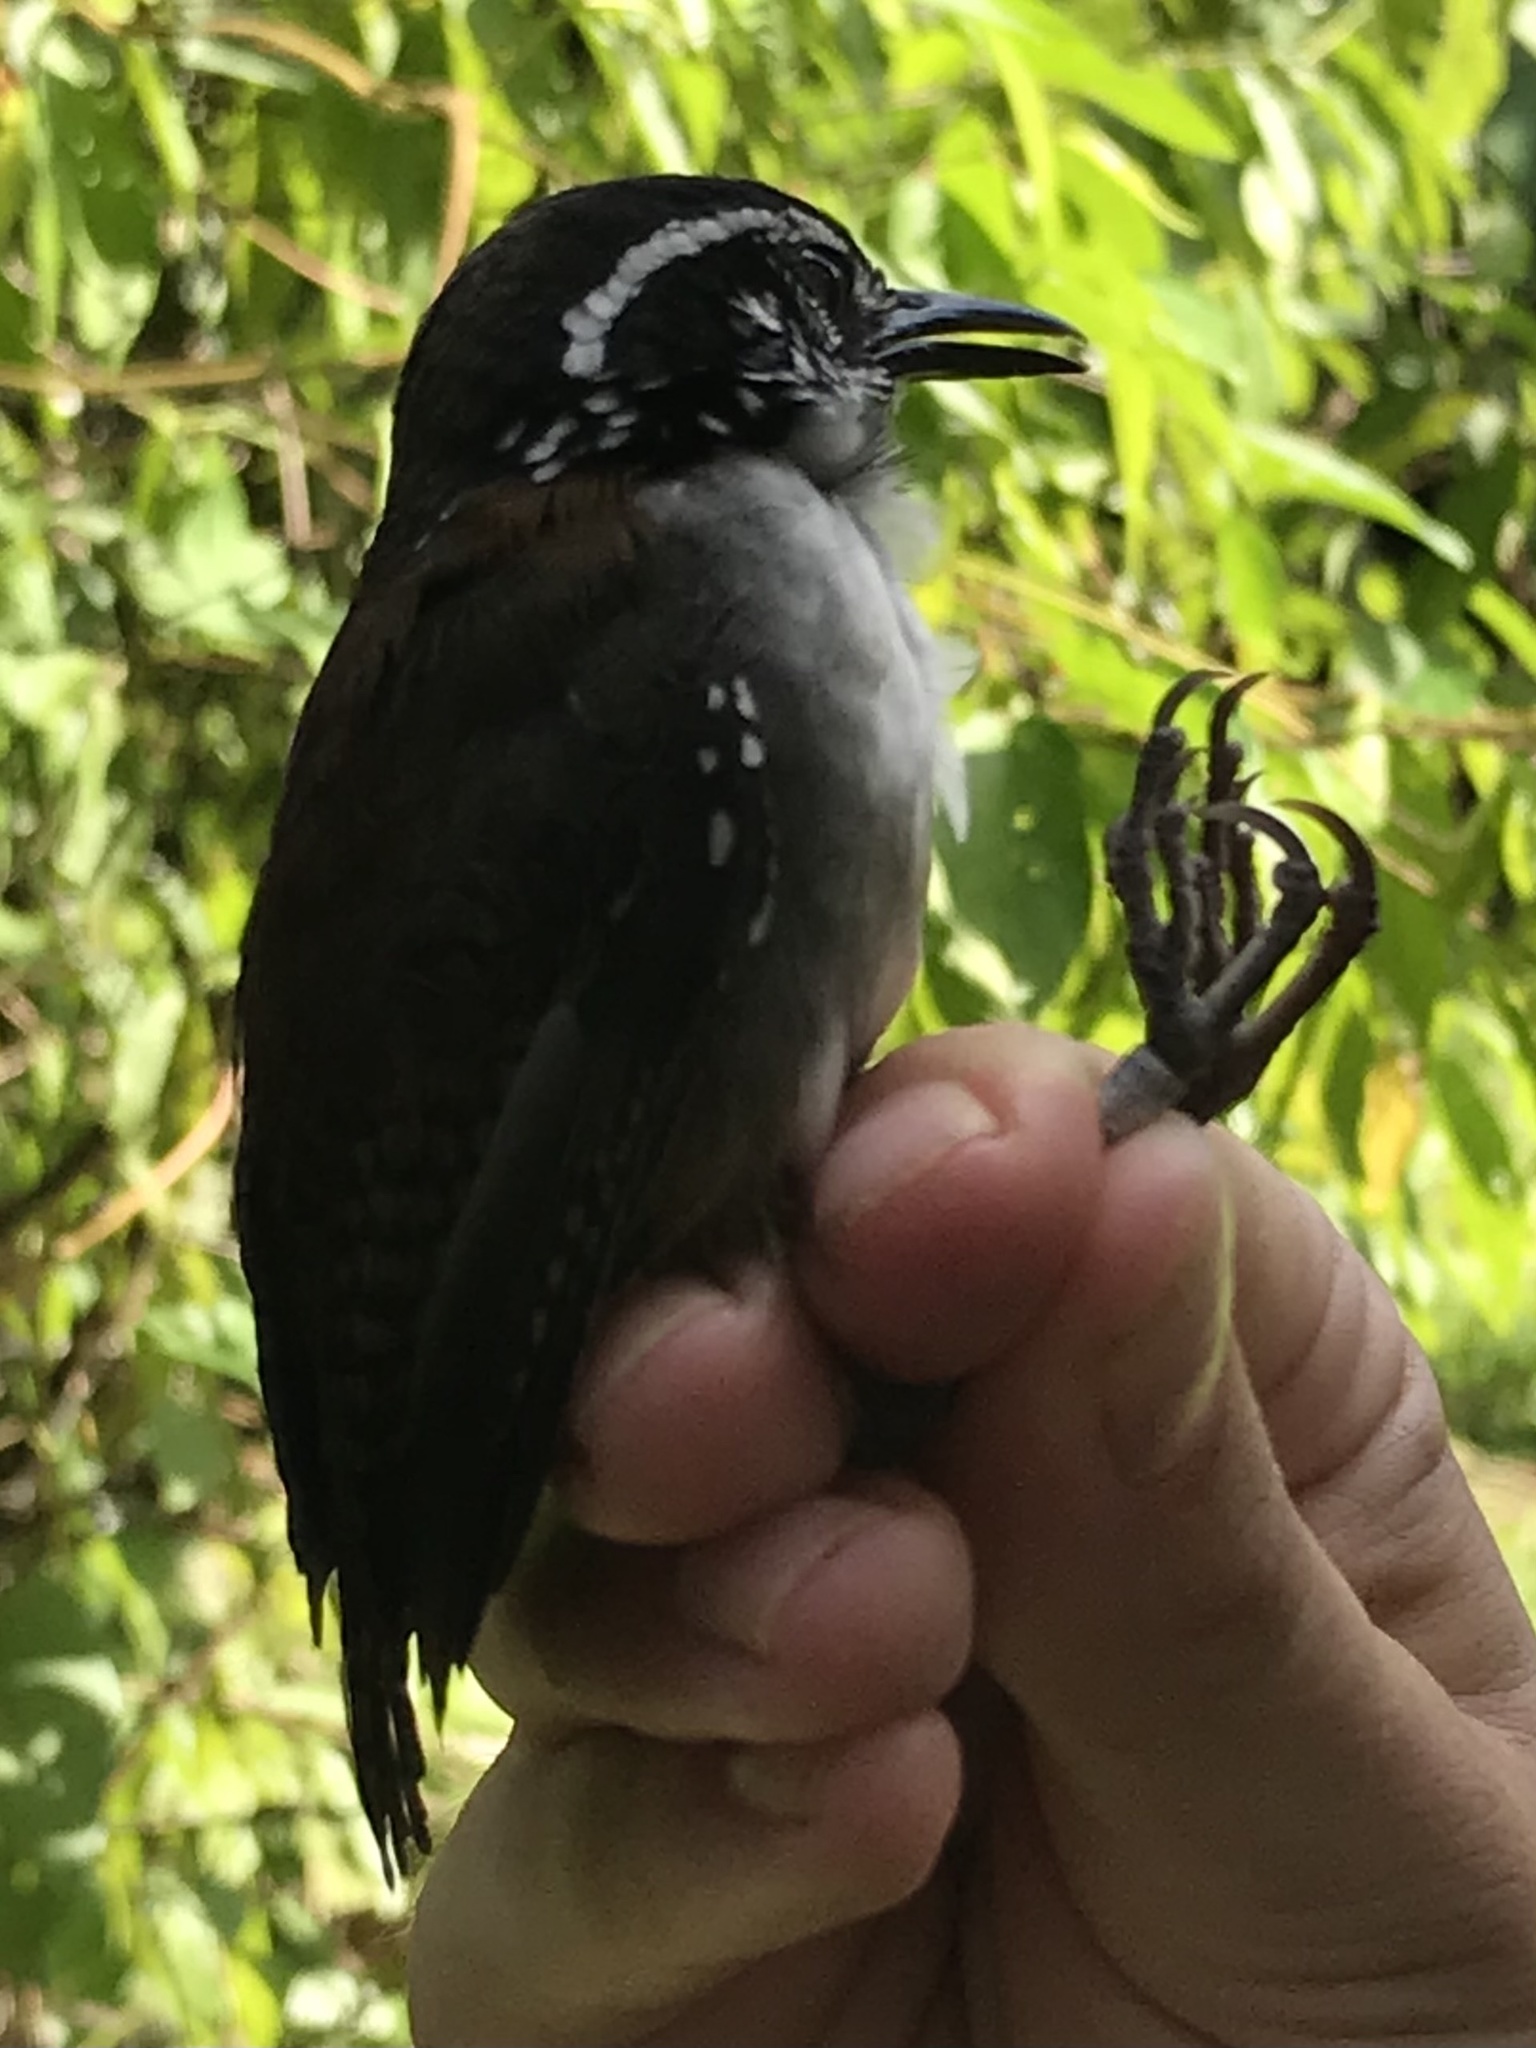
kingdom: Animalia
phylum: Chordata
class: Aves
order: Passeriformes
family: Troglodytidae
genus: Henicorhina
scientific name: Henicorhina leucosticta
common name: White-breasted wood-wren
